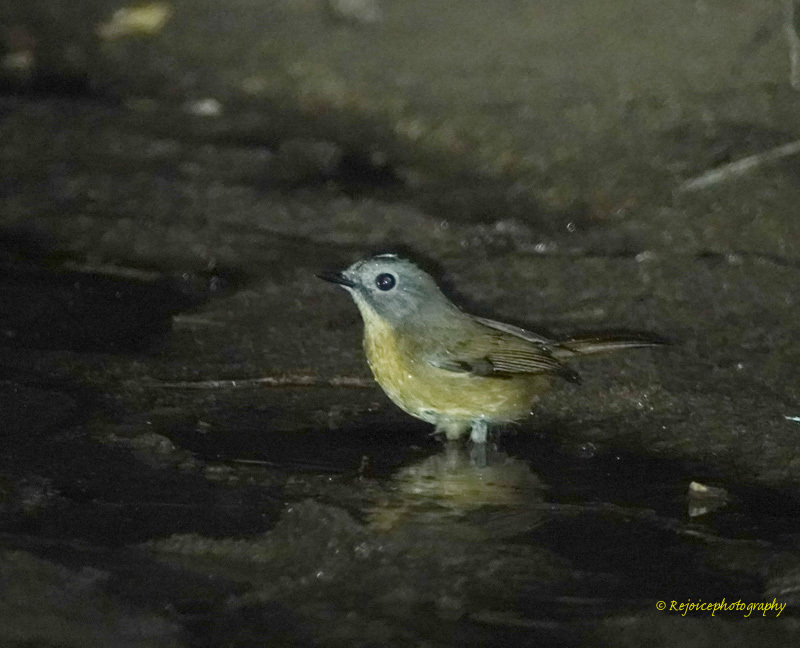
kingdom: Animalia
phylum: Chordata
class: Aves
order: Passeriformes
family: Muscicapidae
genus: Cyornis
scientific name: Cyornis poliogenys
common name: Pale-chinned blue flycatcher
